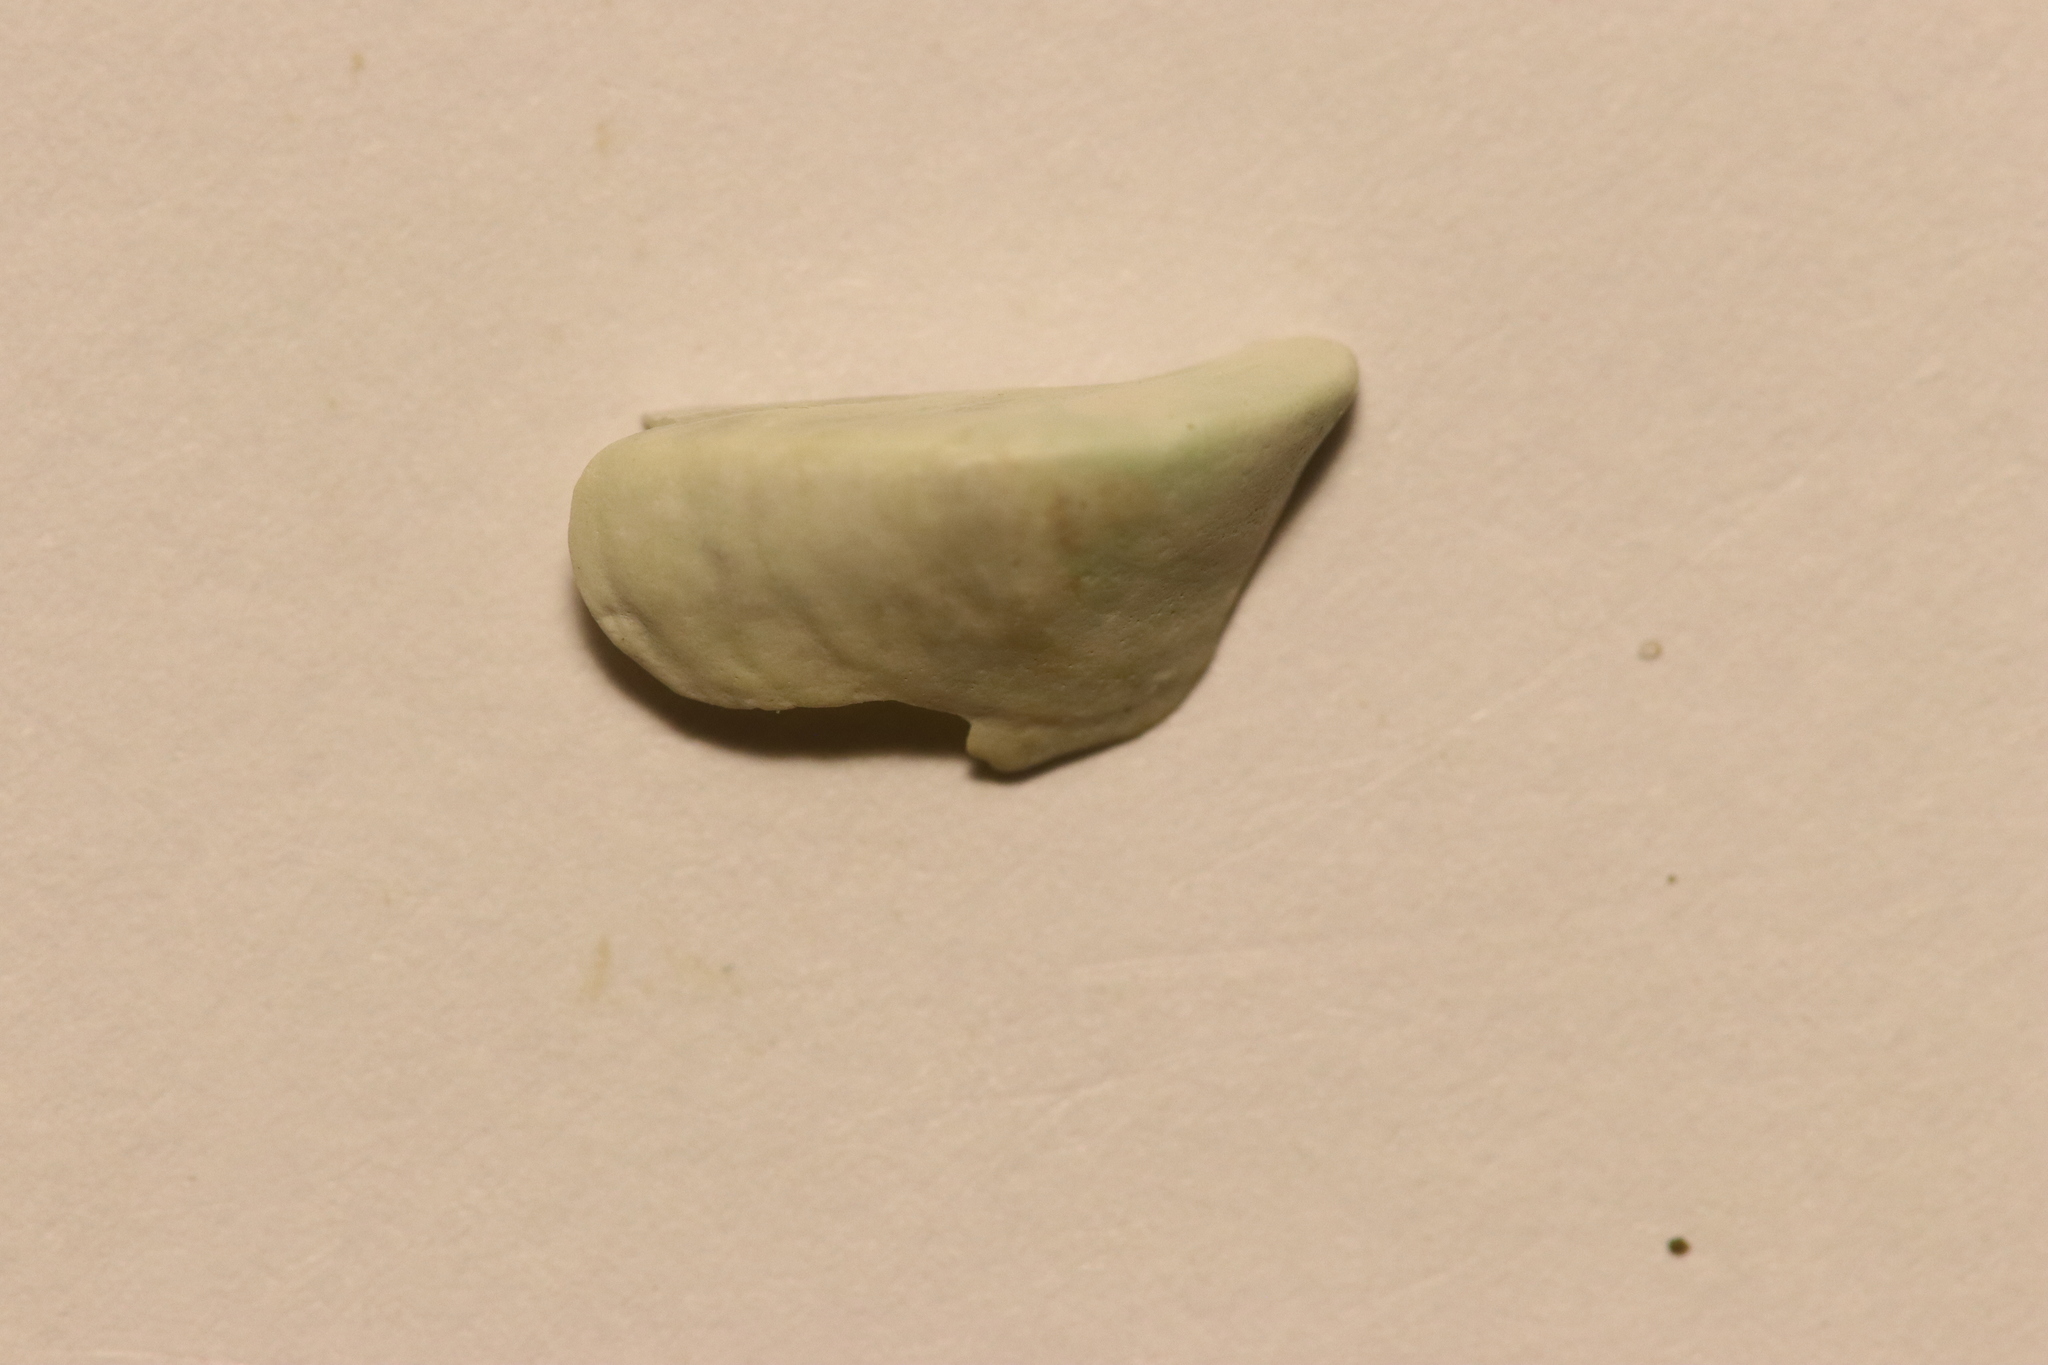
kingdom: Animalia
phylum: Mollusca
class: Bivalvia
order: Myida
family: Dreissenidae
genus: Dreissena
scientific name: Dreissena polymorpha
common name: Zebra mussel
